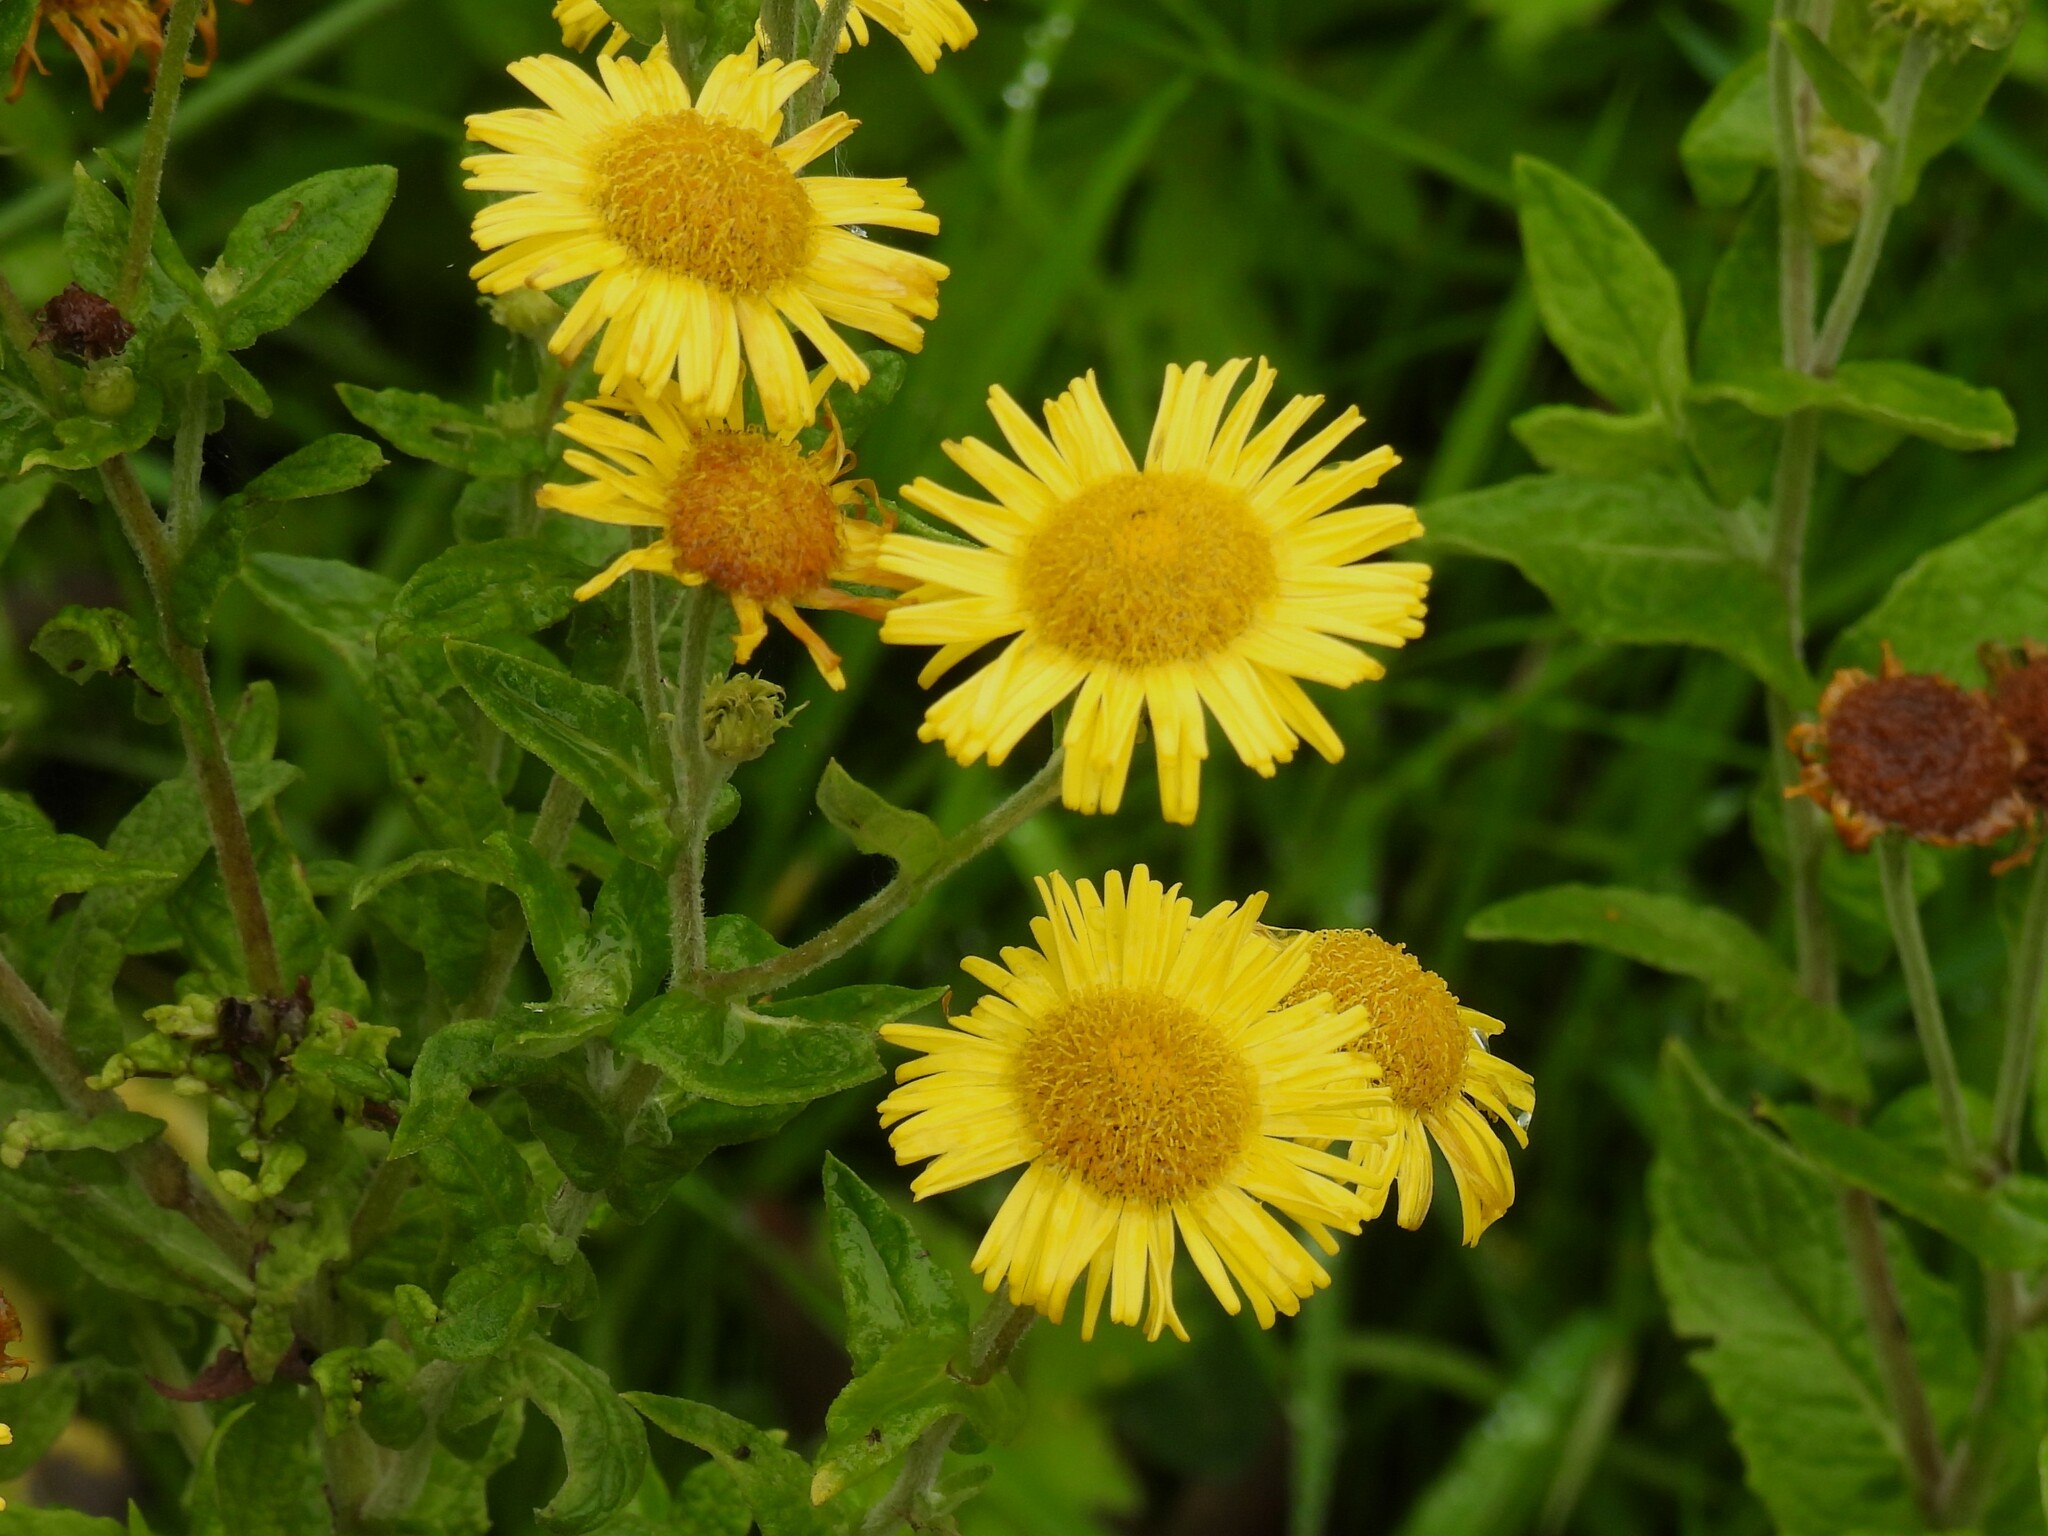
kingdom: Plantae
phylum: Tracheophyta
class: Magnoliopsida
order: Asterales
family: Asteraceae
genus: Pulicaria
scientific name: Pulicaria dysenterica
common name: Common fleabane
